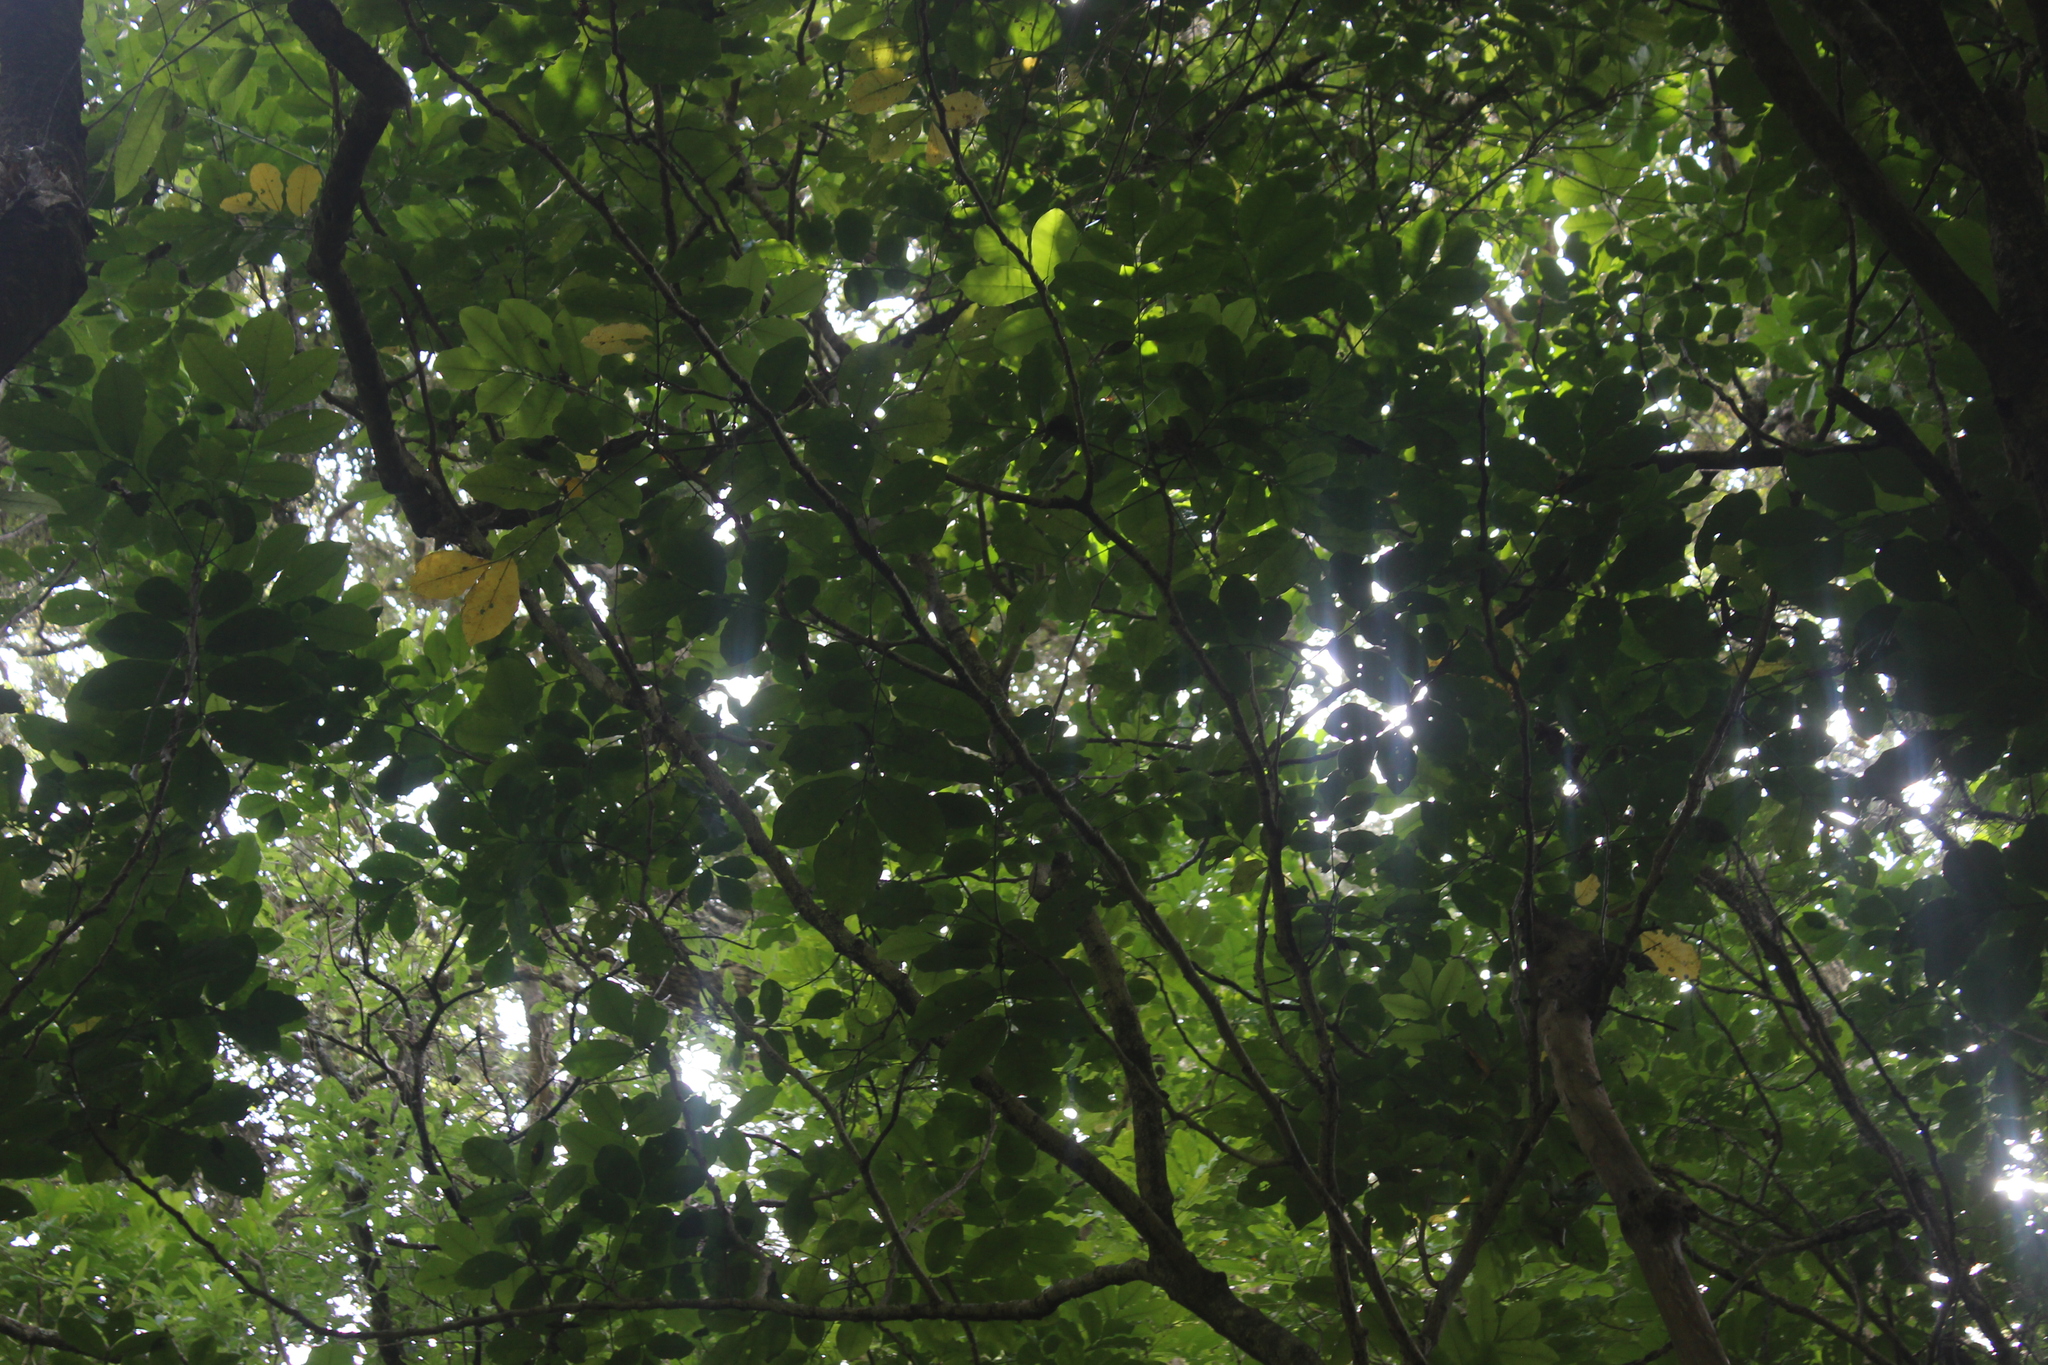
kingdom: Plantae
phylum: Tracheophyta
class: Magnoliopsida
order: Sapindales
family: Meliaceae
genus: Didymocheton
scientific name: Didymocheton spectabilis
